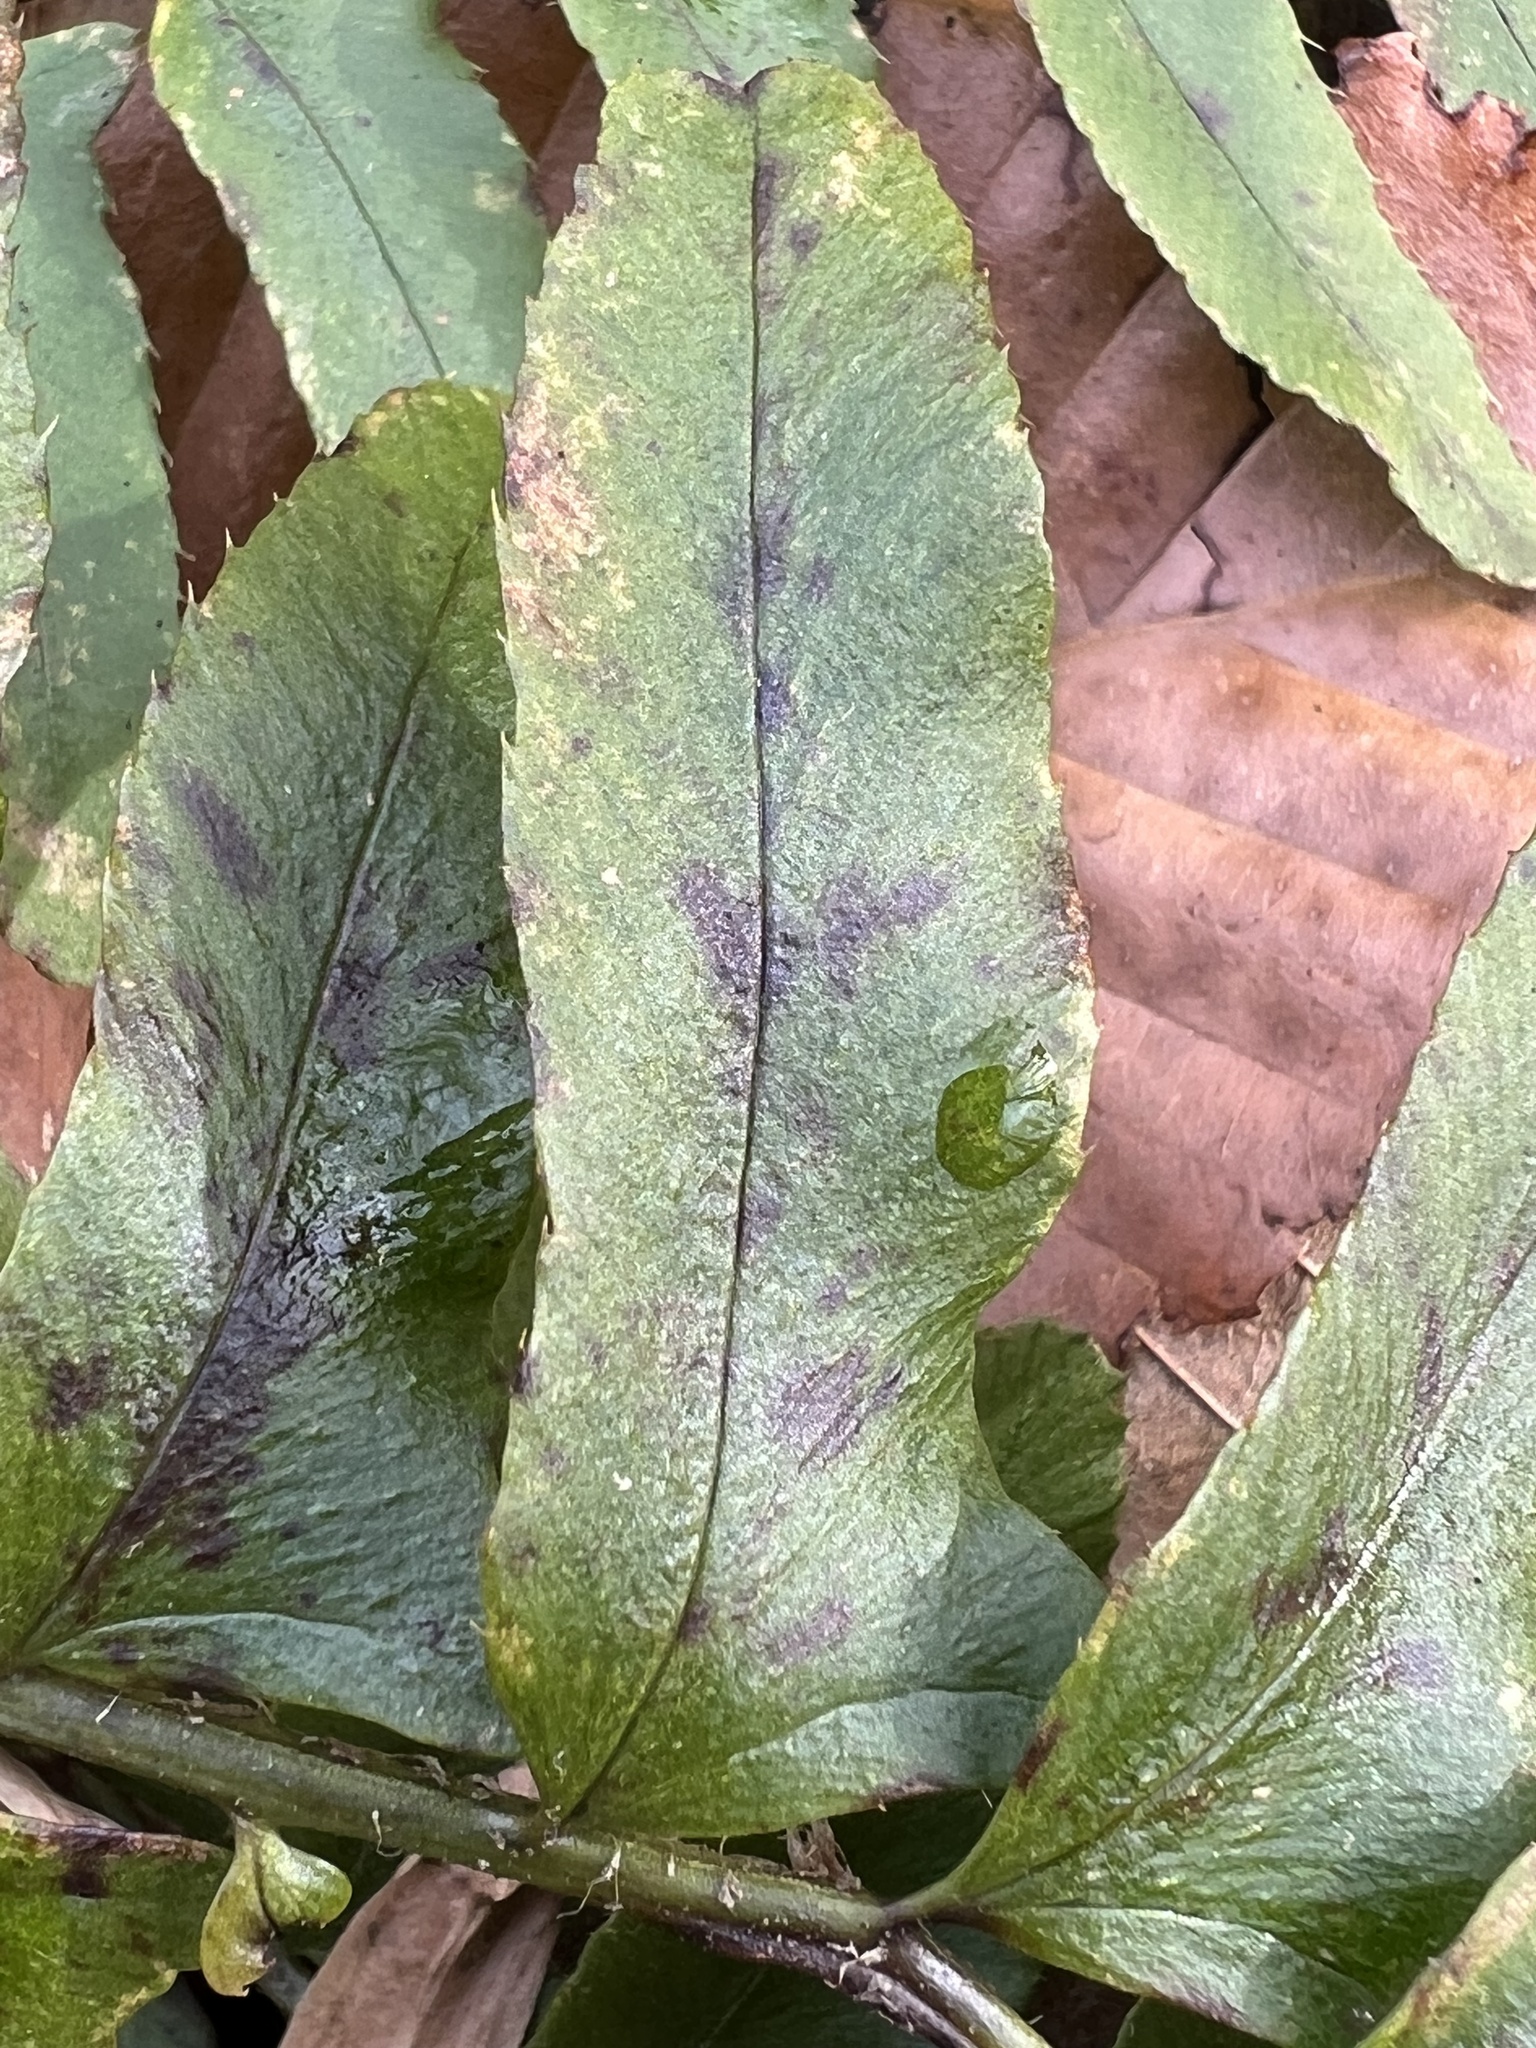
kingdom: Plantae
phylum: Tracheophyta
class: Polypodiopsida
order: Polypodiales
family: Dryopteridaceae
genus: Polystichum
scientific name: Polystichum acrostichoides
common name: Christmas fern
